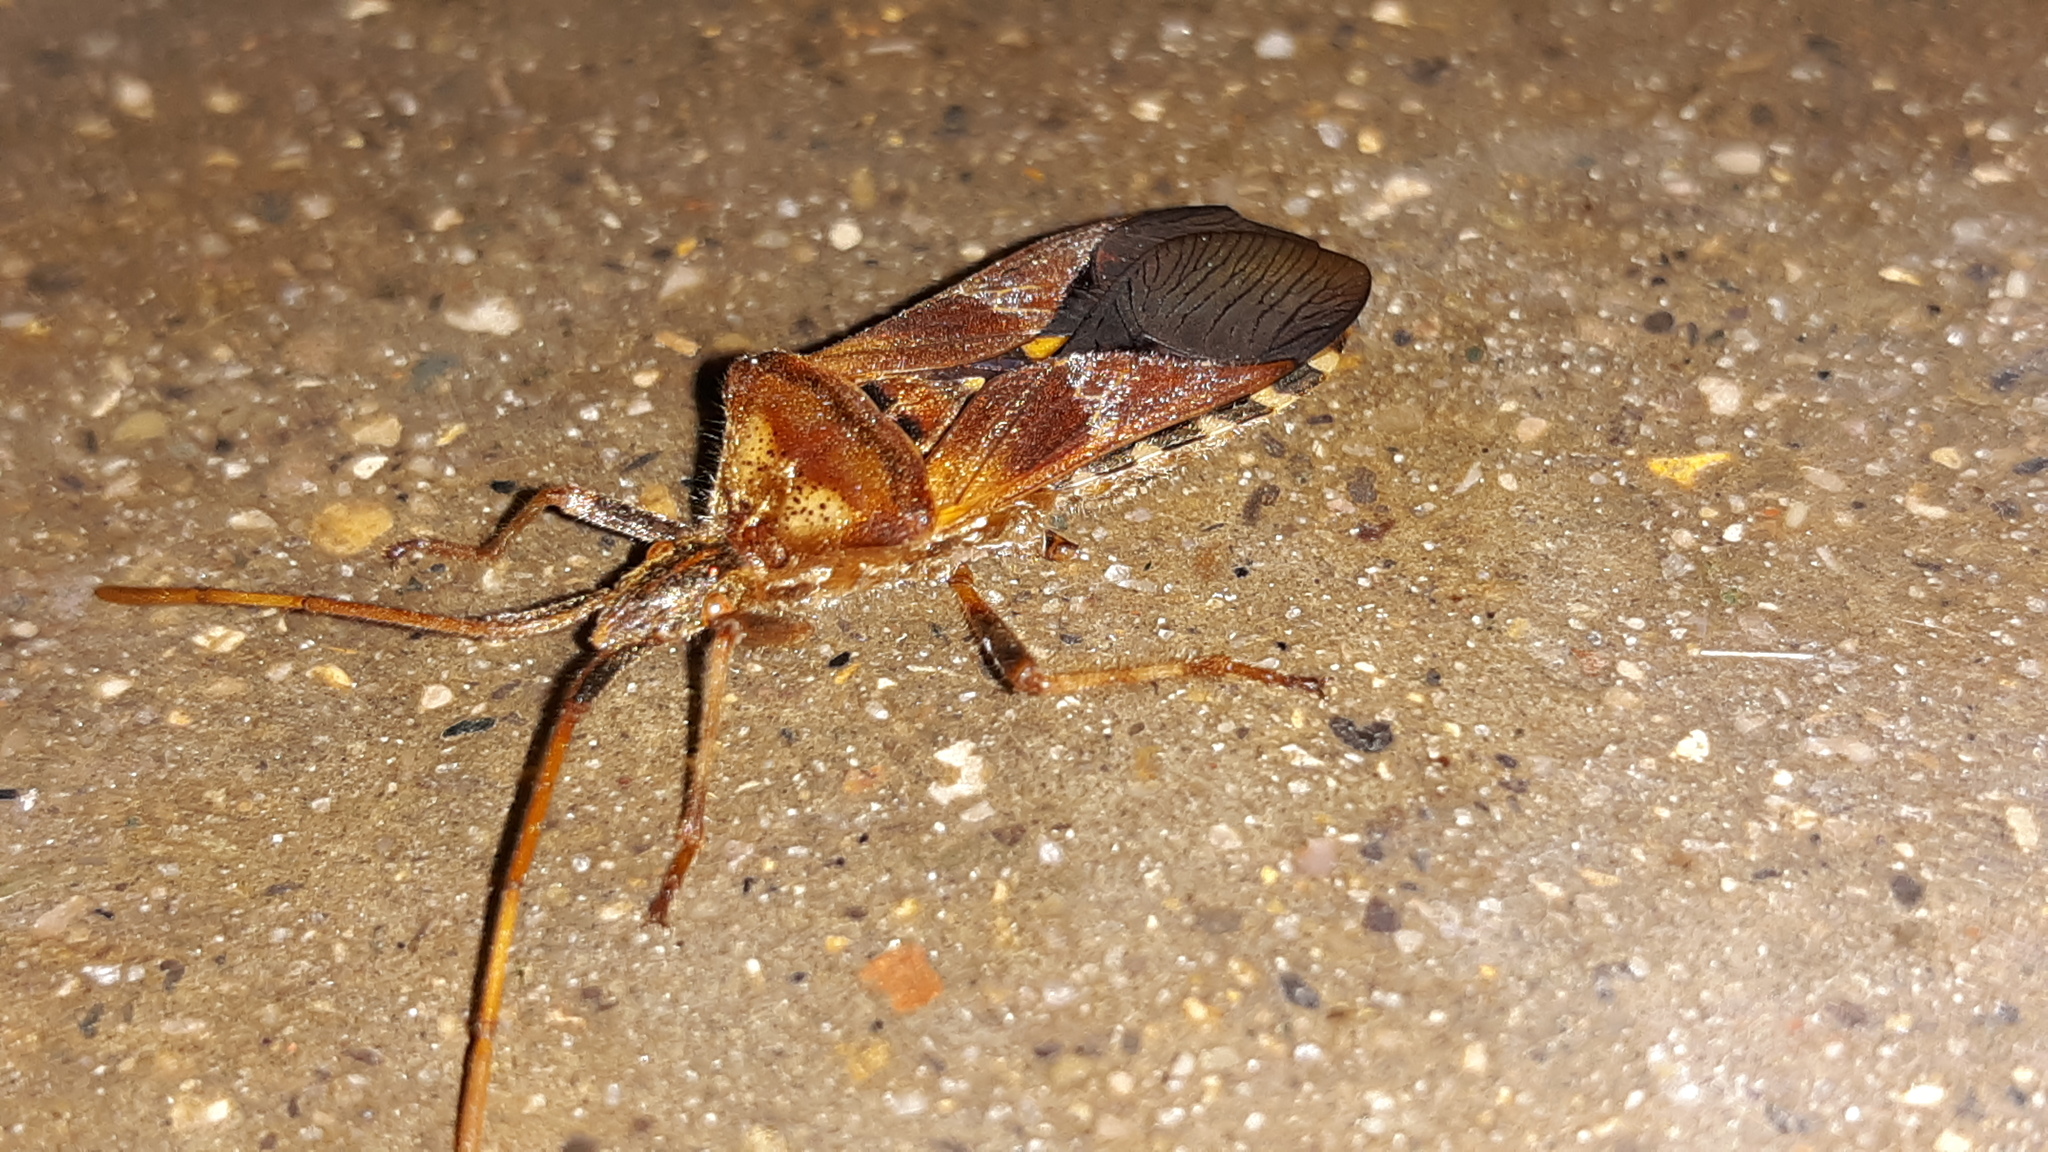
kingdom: Animalia
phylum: Arthropoda
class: Insecta
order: Hemiptera
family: Coreidae
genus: Leptoglossus
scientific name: Leptoglossus occidentalis
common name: Western conifer-seed bug
